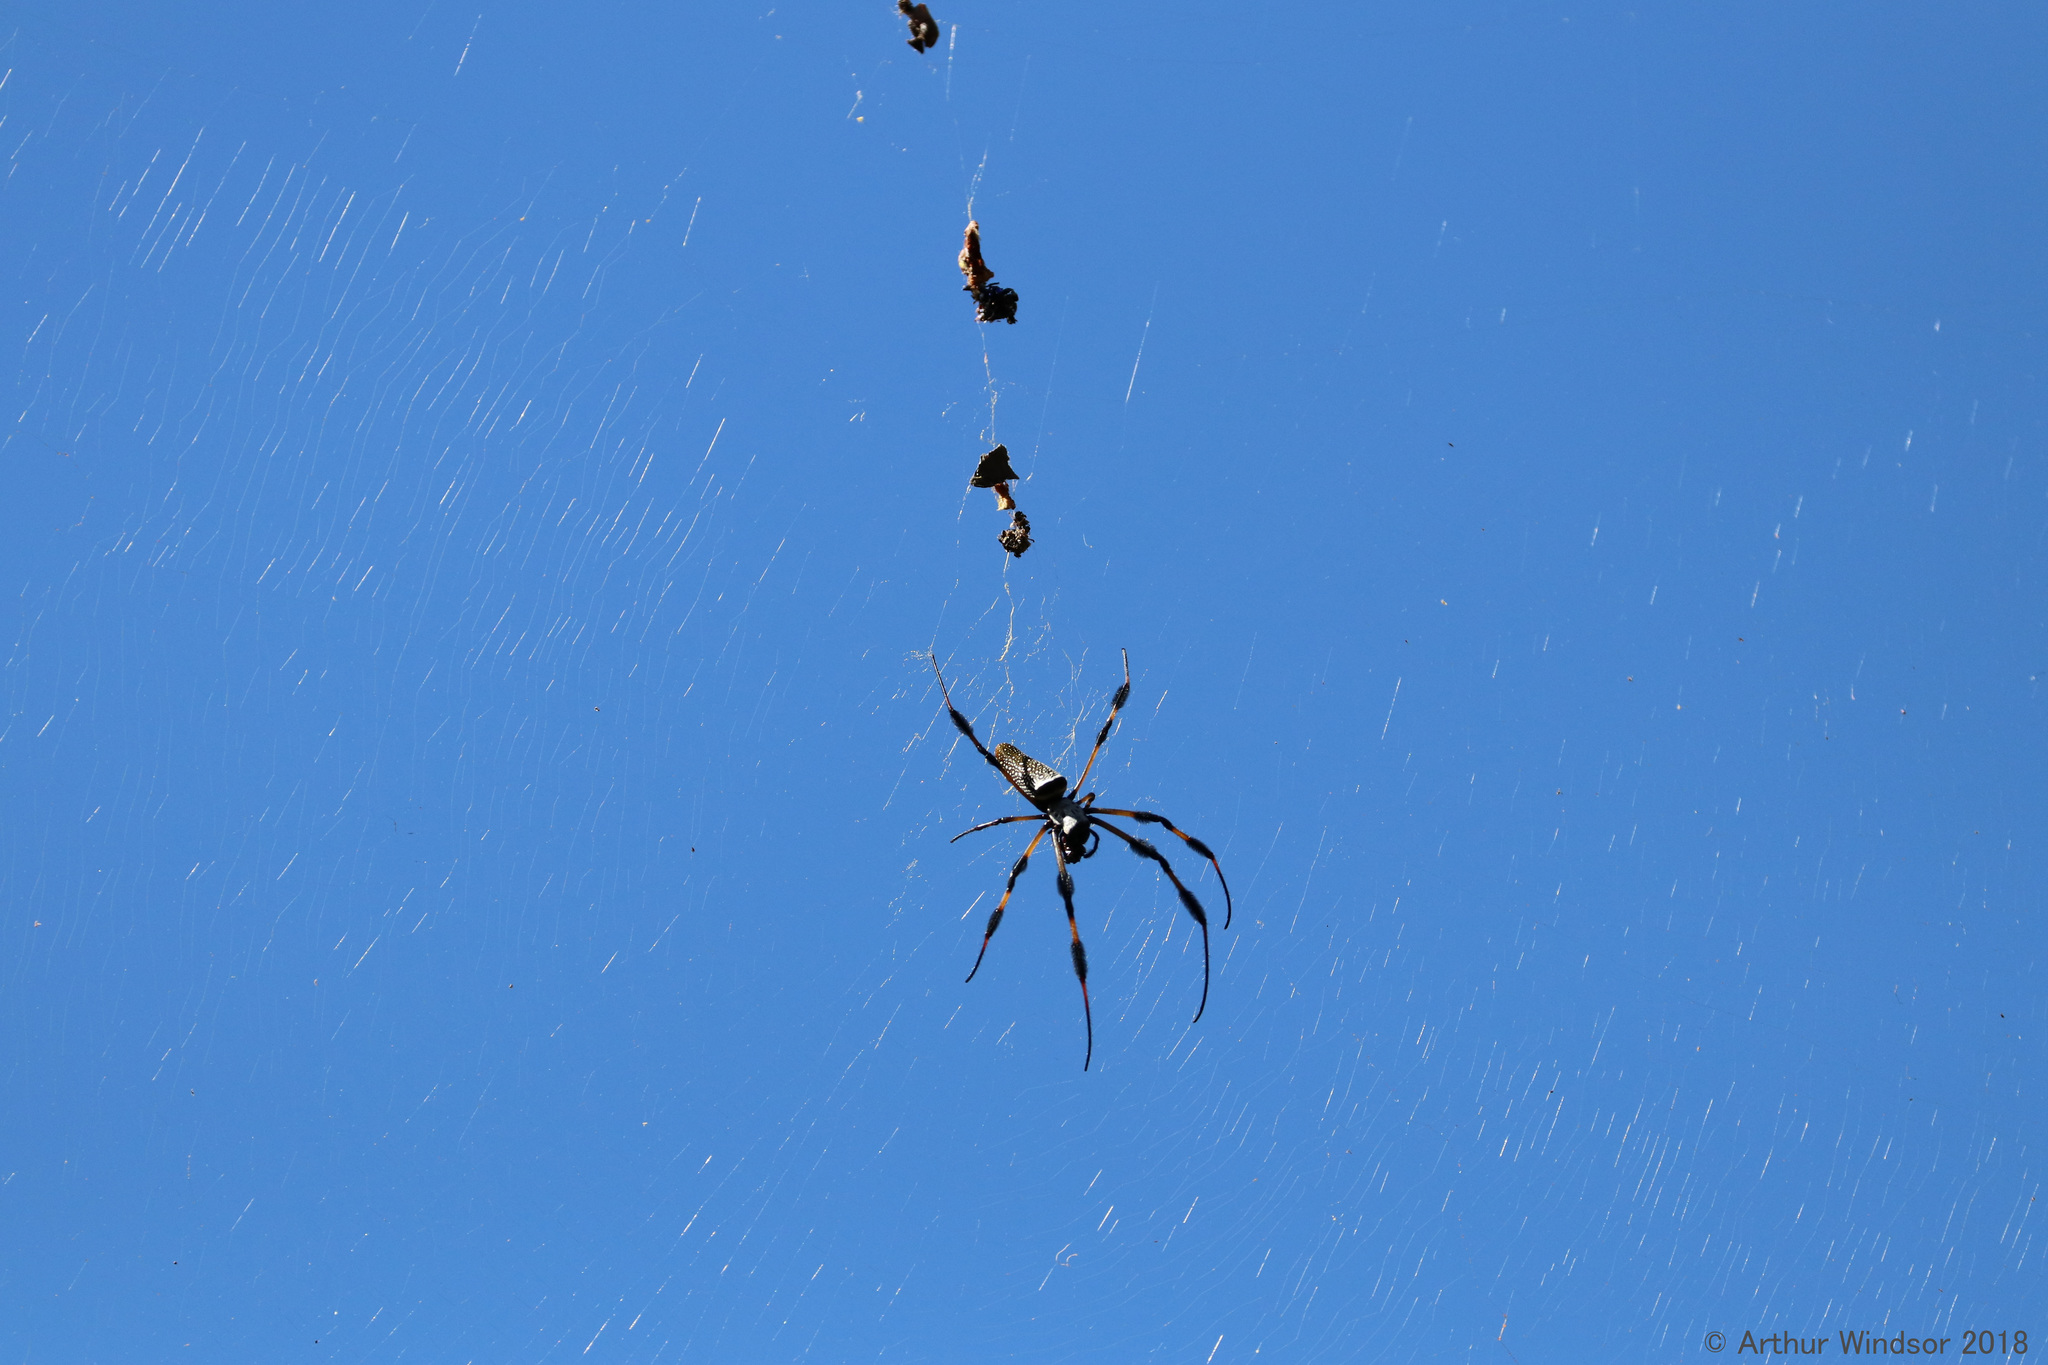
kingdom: Animalia
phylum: Arthropoda
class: Arachnida
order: Araneae
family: Araneidae
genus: Trichonephila
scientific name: Trichonephila clavipes
